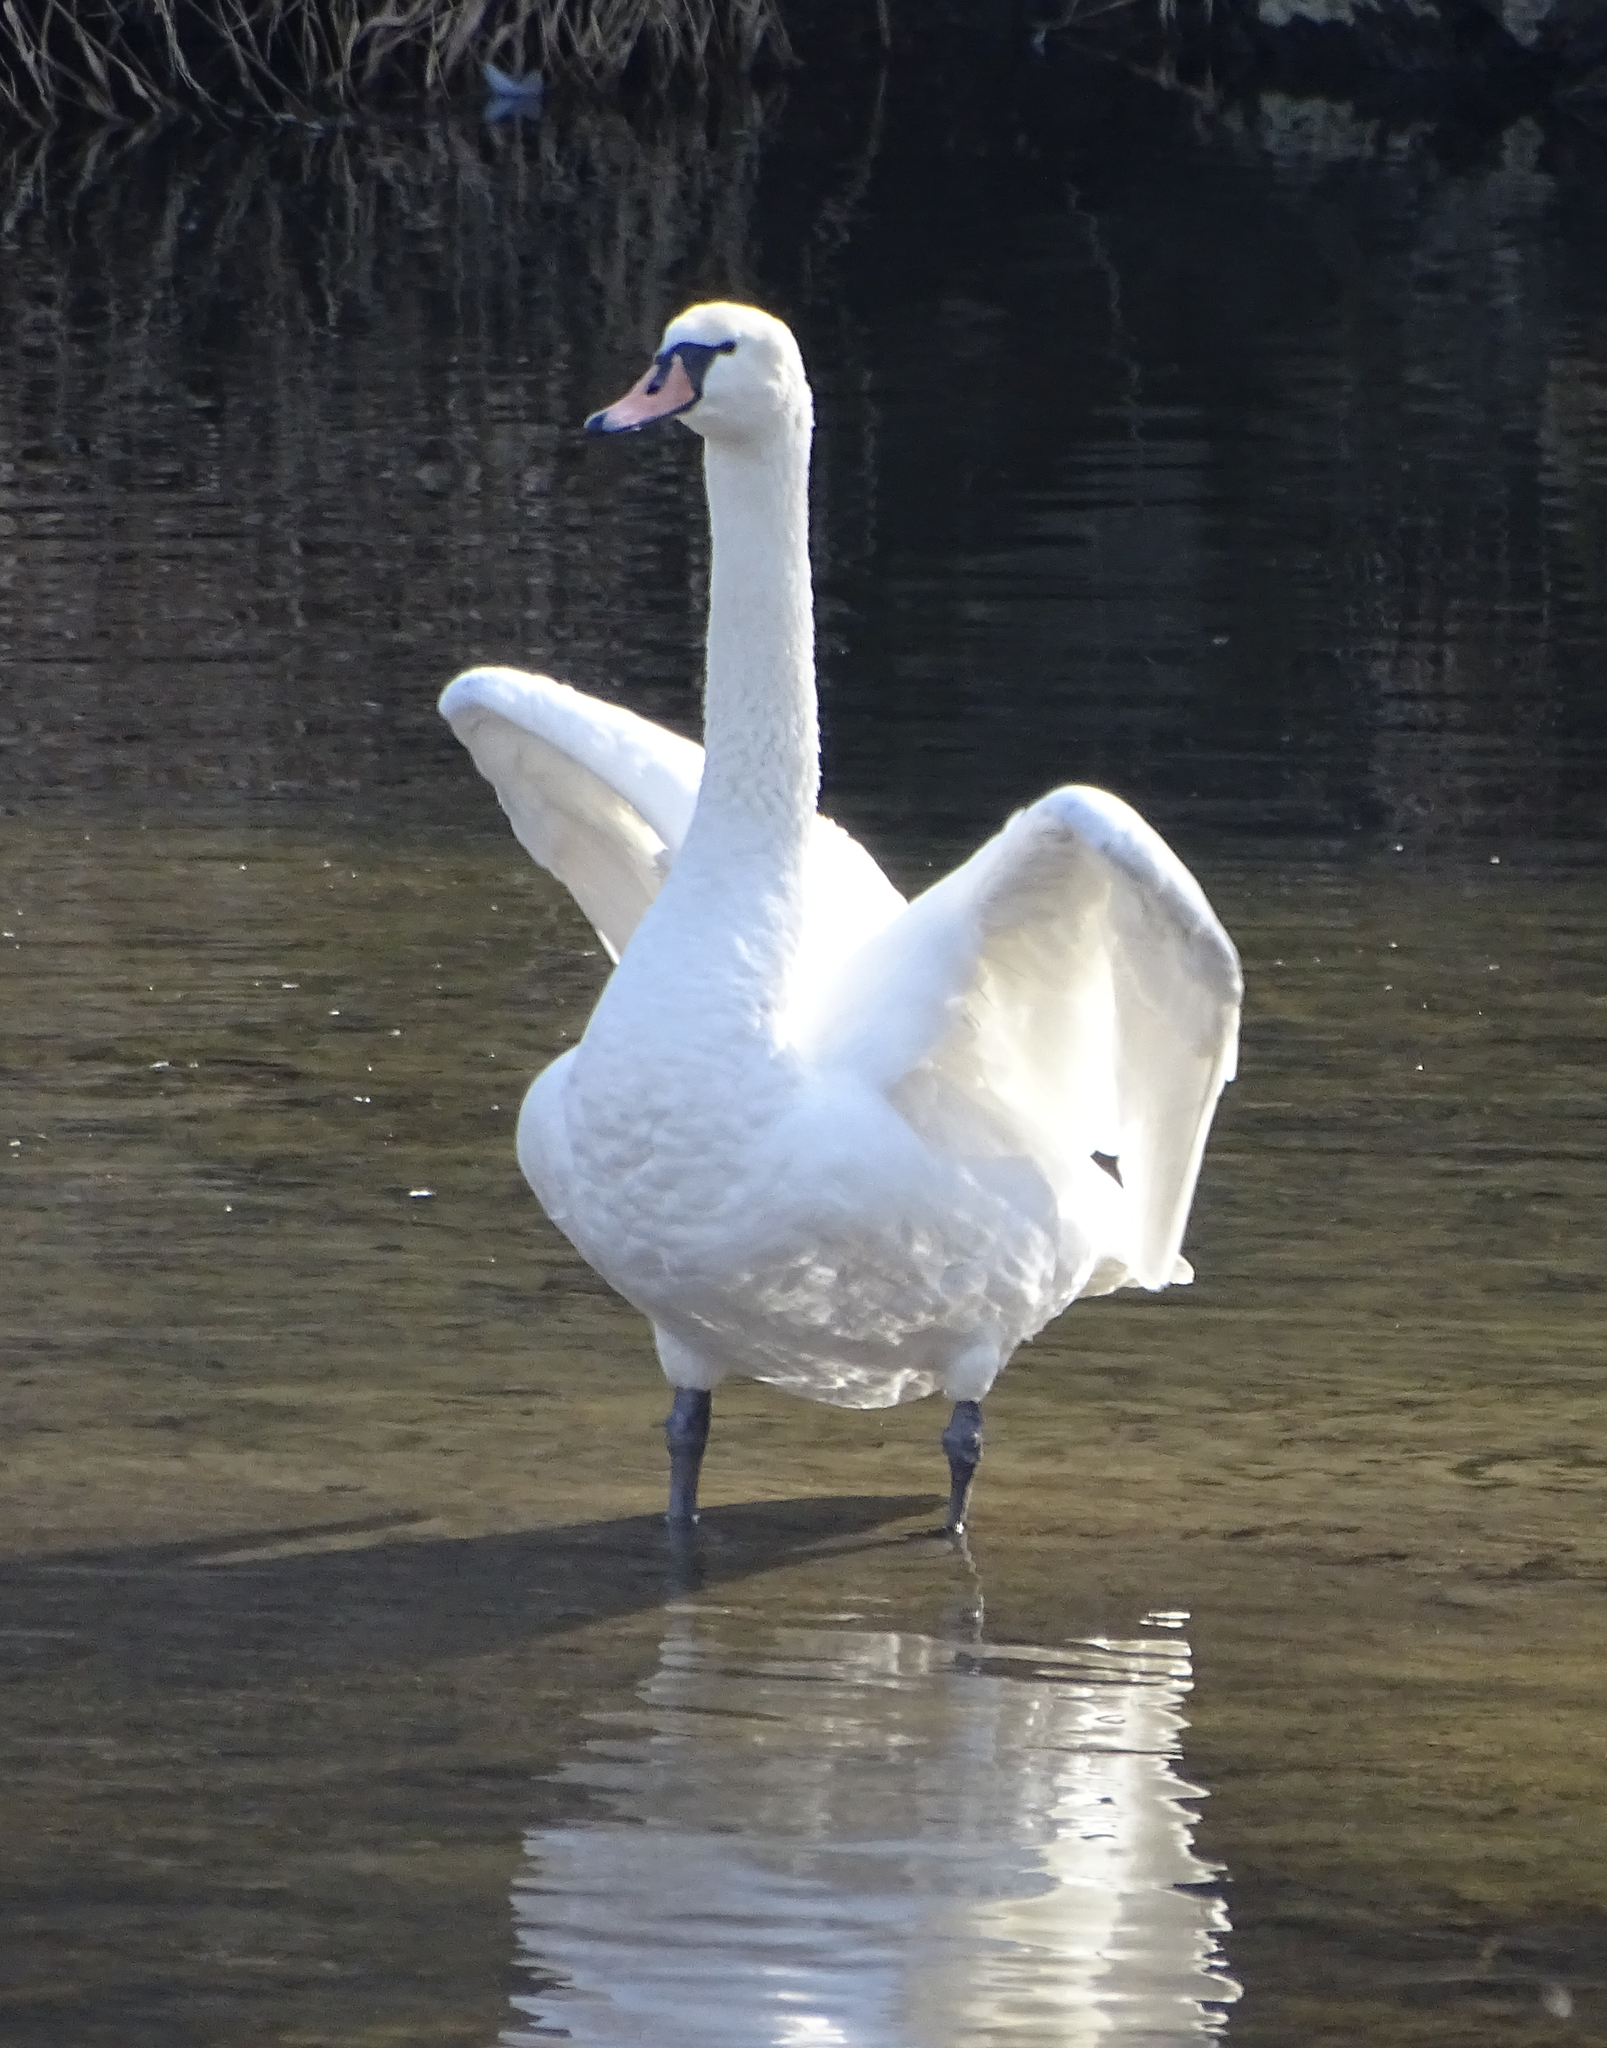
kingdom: Animalia
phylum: Chordata
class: Aves
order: Anseriformes
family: Anatidae
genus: Cygnus
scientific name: Cygnus olor
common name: Mute swan
